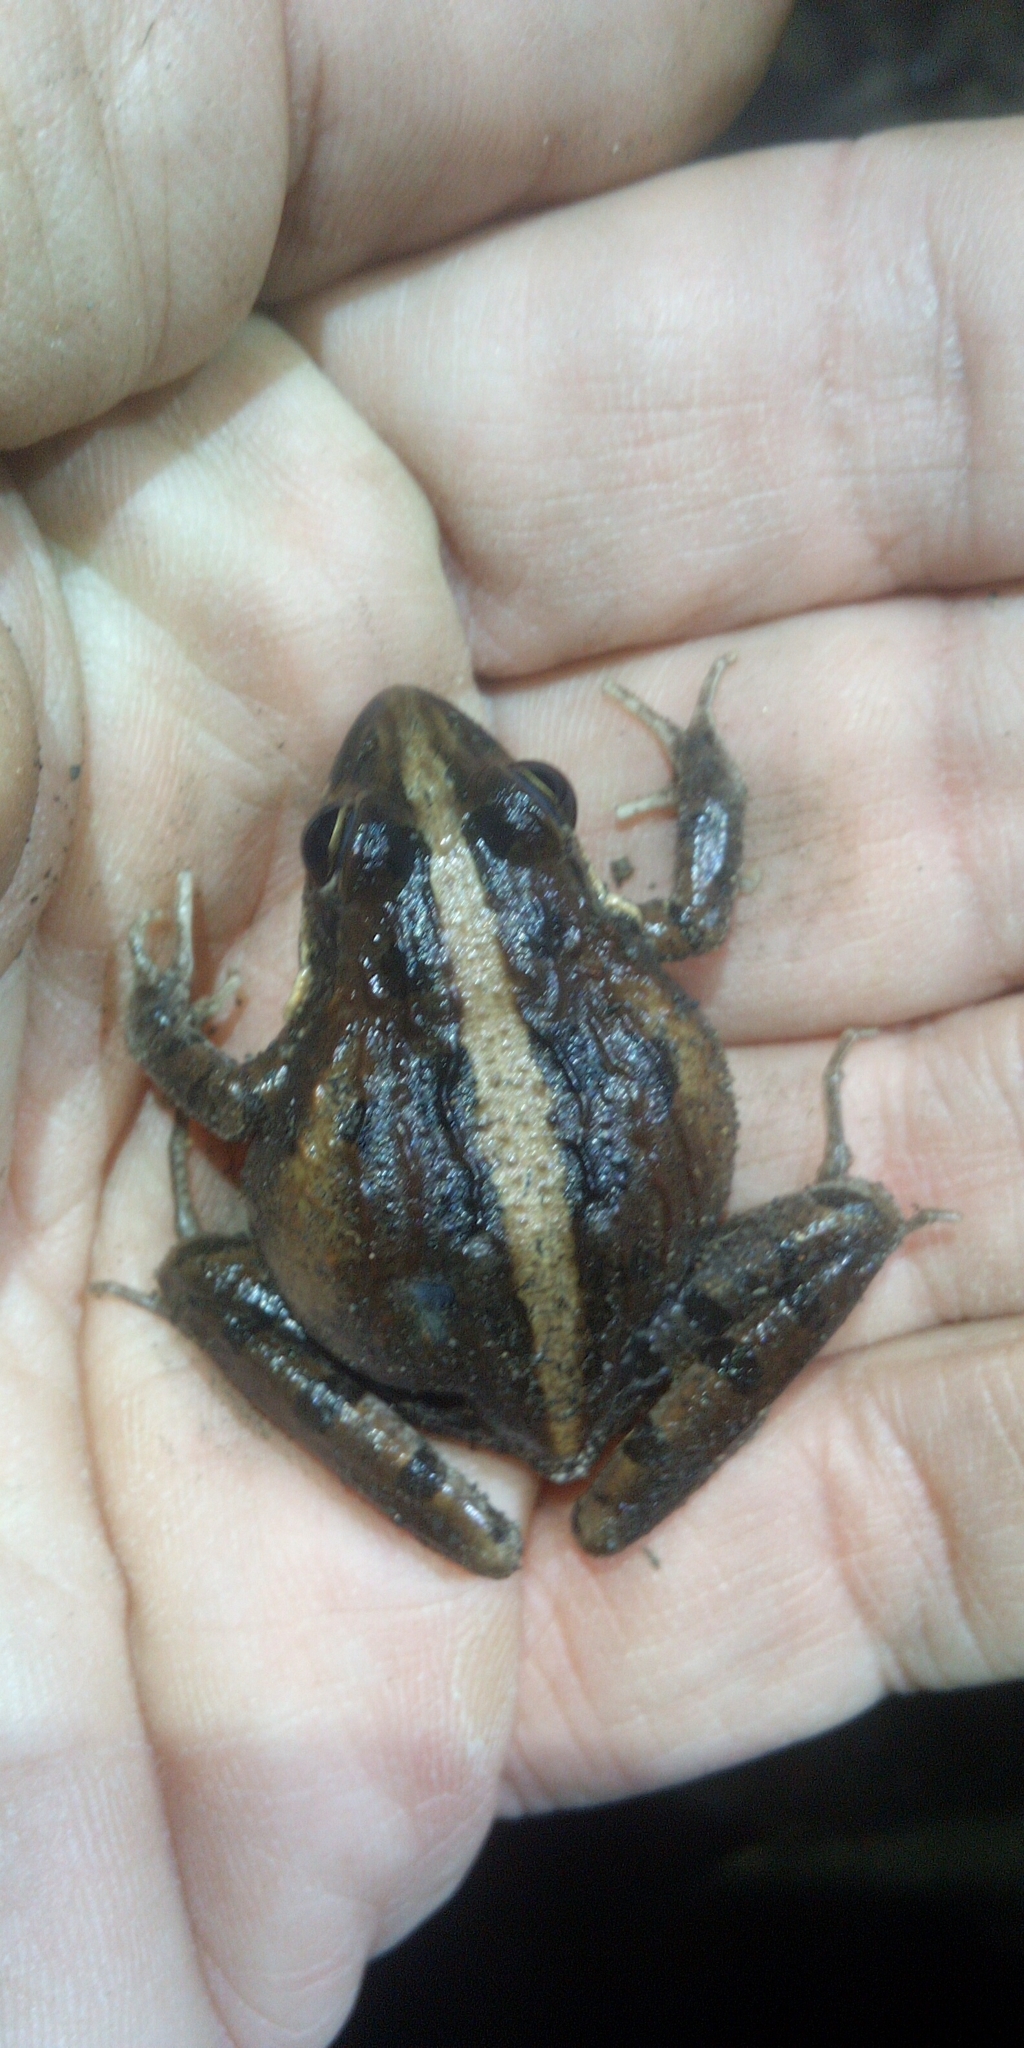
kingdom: Animalia
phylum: Chordata
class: Amphibia
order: Anura
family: Pyxicephalidae
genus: Strongylopus
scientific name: Strongylopus grayii
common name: Gray's stream frog
